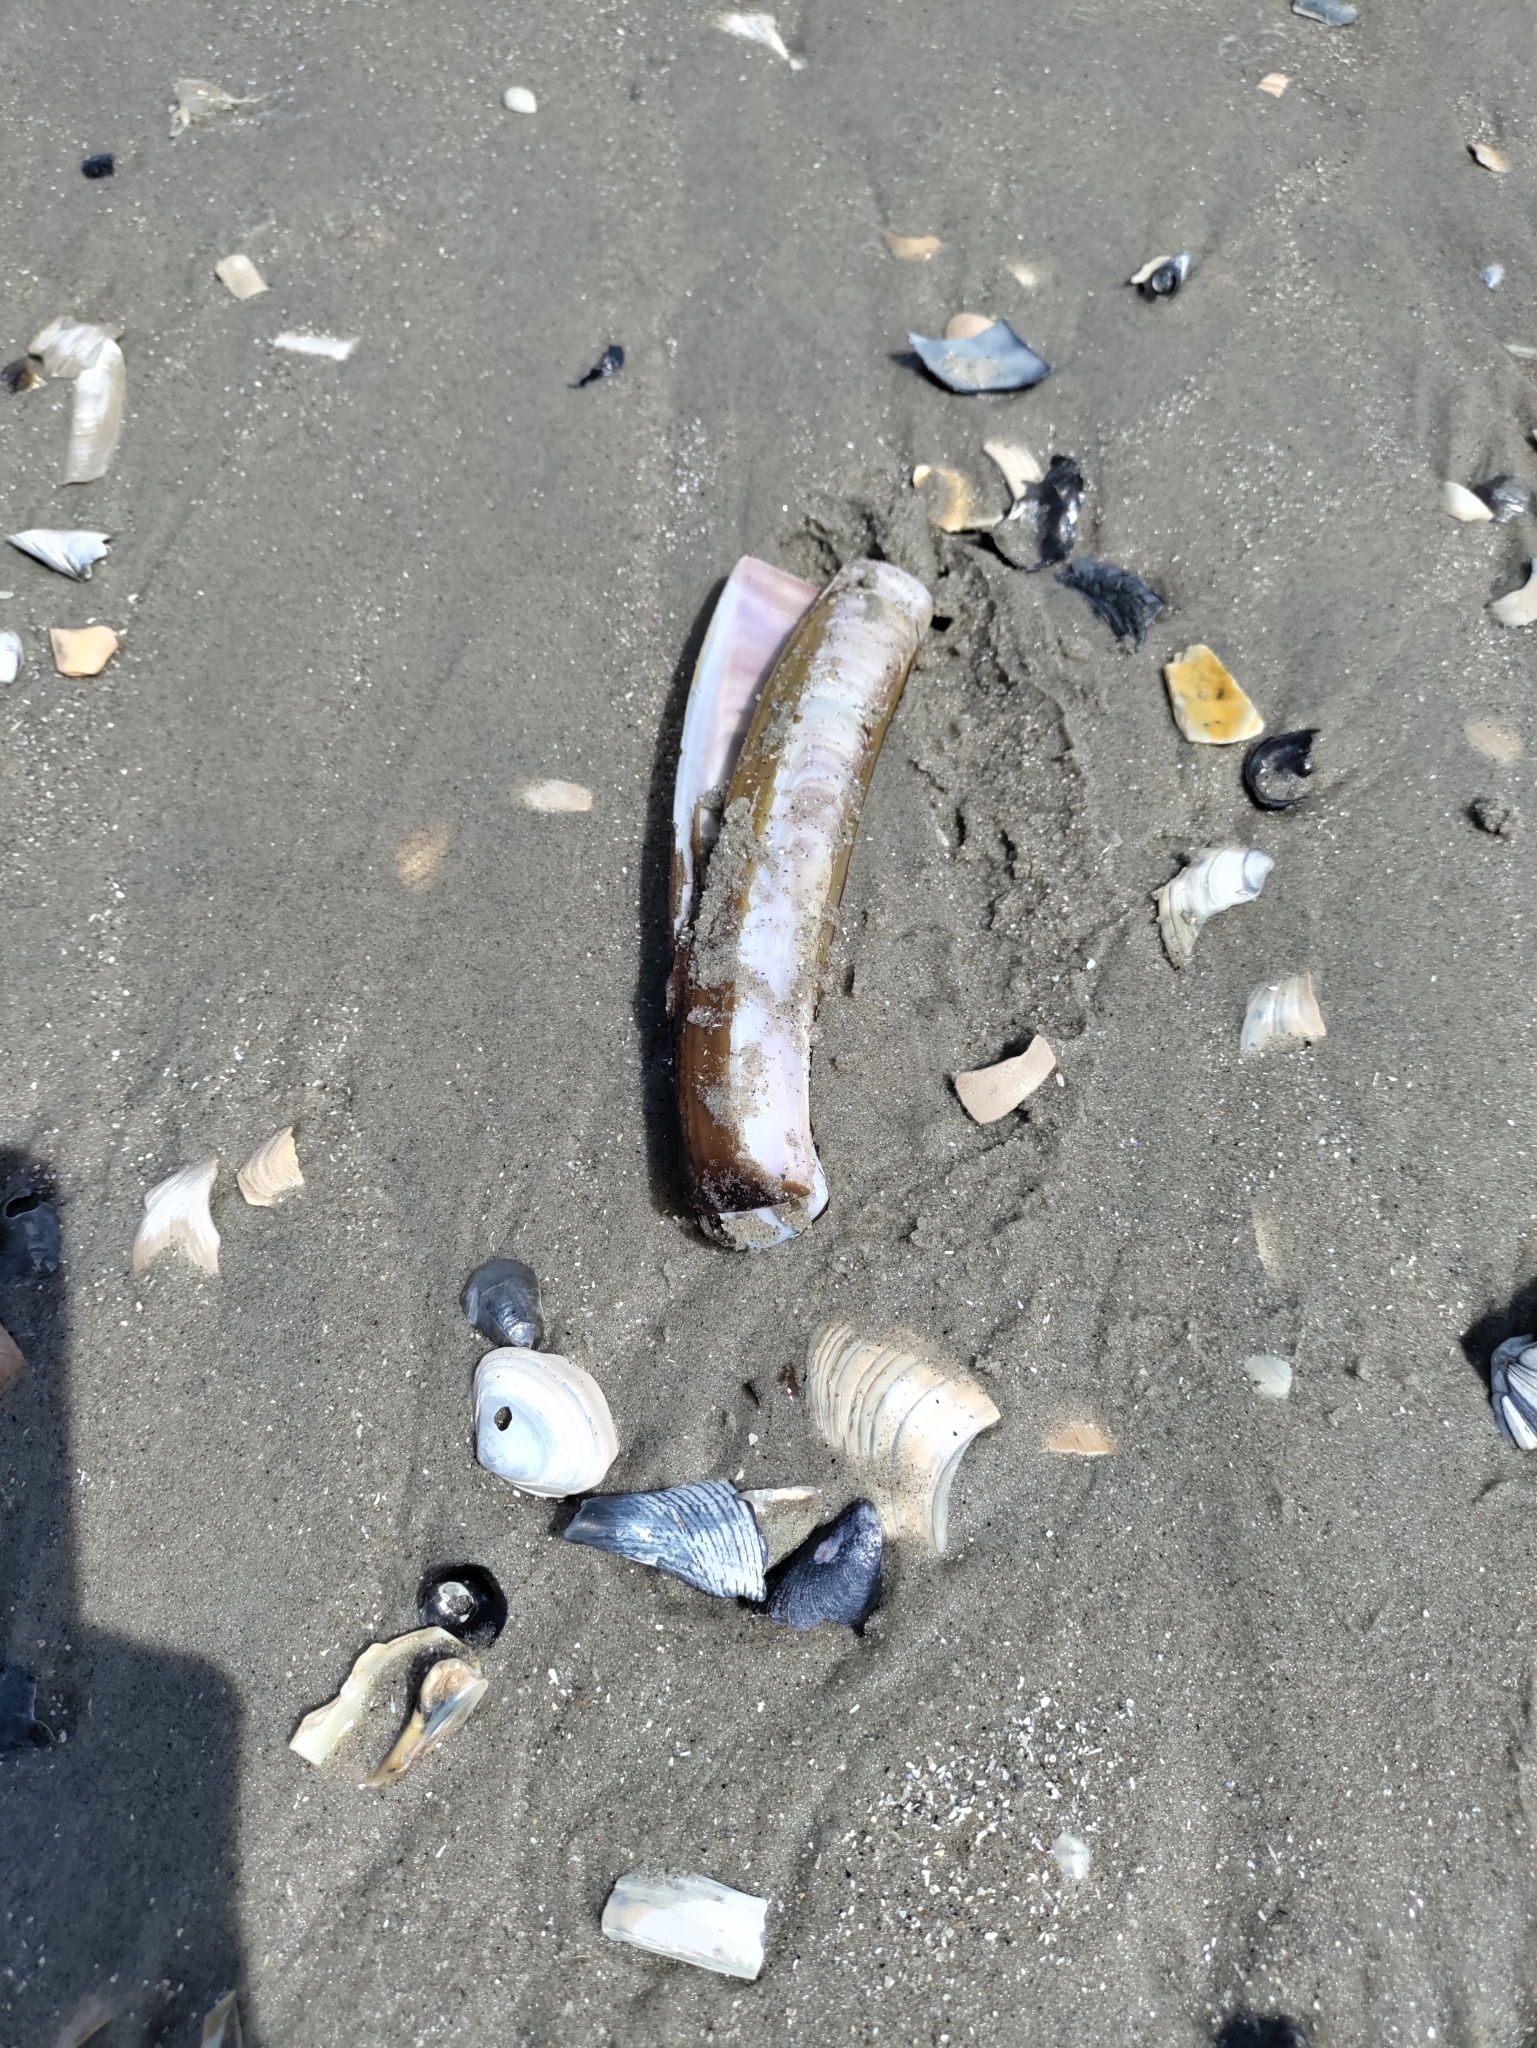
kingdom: Animalia
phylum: Mollusca
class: Bivalvia
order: Adapedonta
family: Pharidae
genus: Ensis
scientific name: Ensis leei
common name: American jack knife clam
